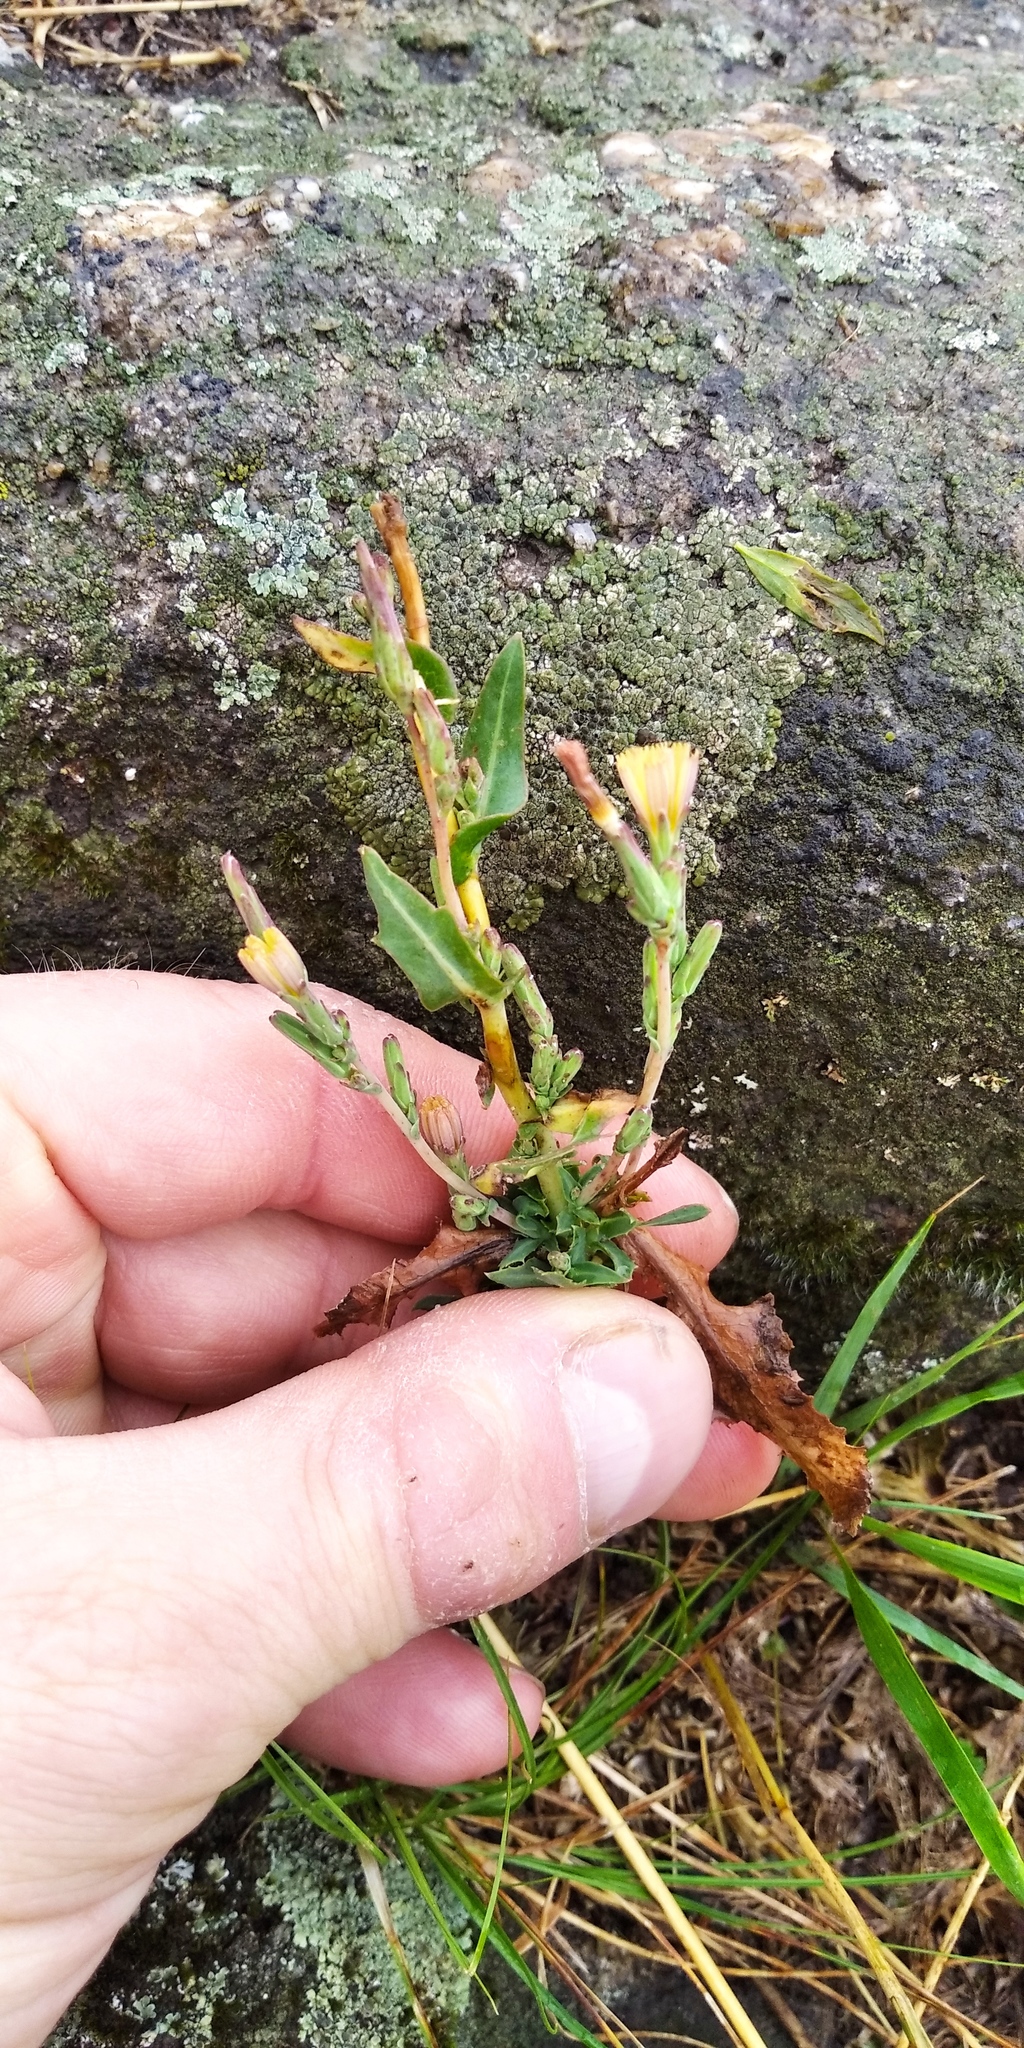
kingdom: Plantae
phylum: Tracheophyta
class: Magnoliopsida
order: Asterales
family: Asteraceae
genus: Lactuca
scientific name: Lactuca serriola
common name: Prickly lettuce
